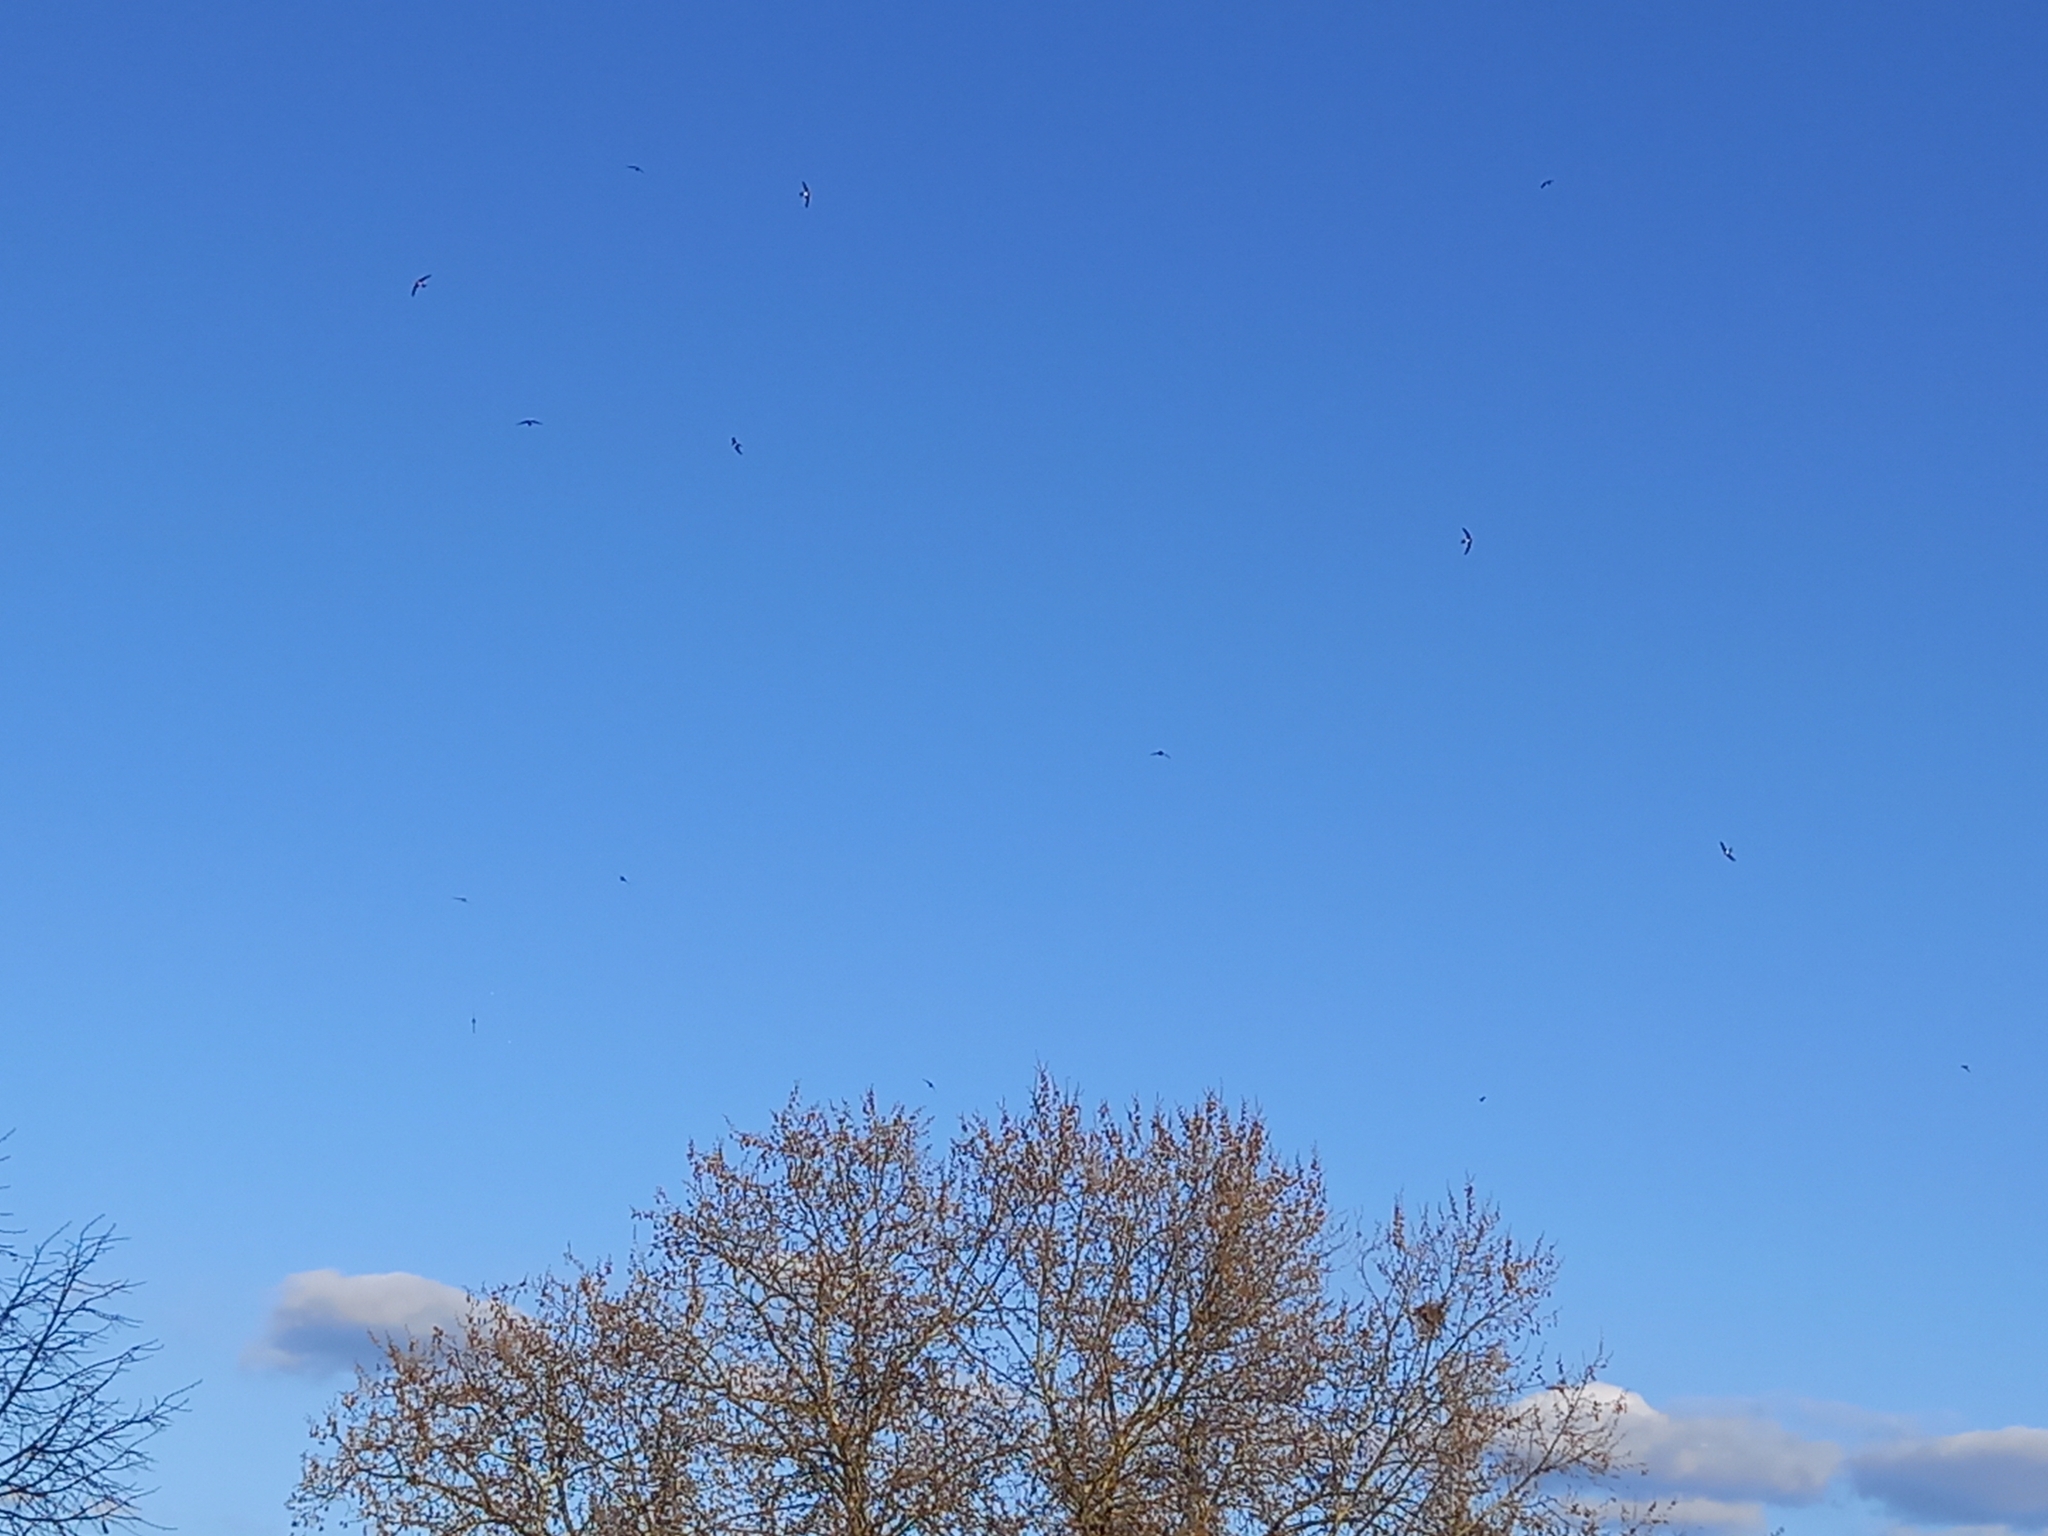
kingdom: Animalia
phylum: Chordata
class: Aves
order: Apodiformes
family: Apodidae
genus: Tachymarptis
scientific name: Tachymarptis melba
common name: Alpine swift
